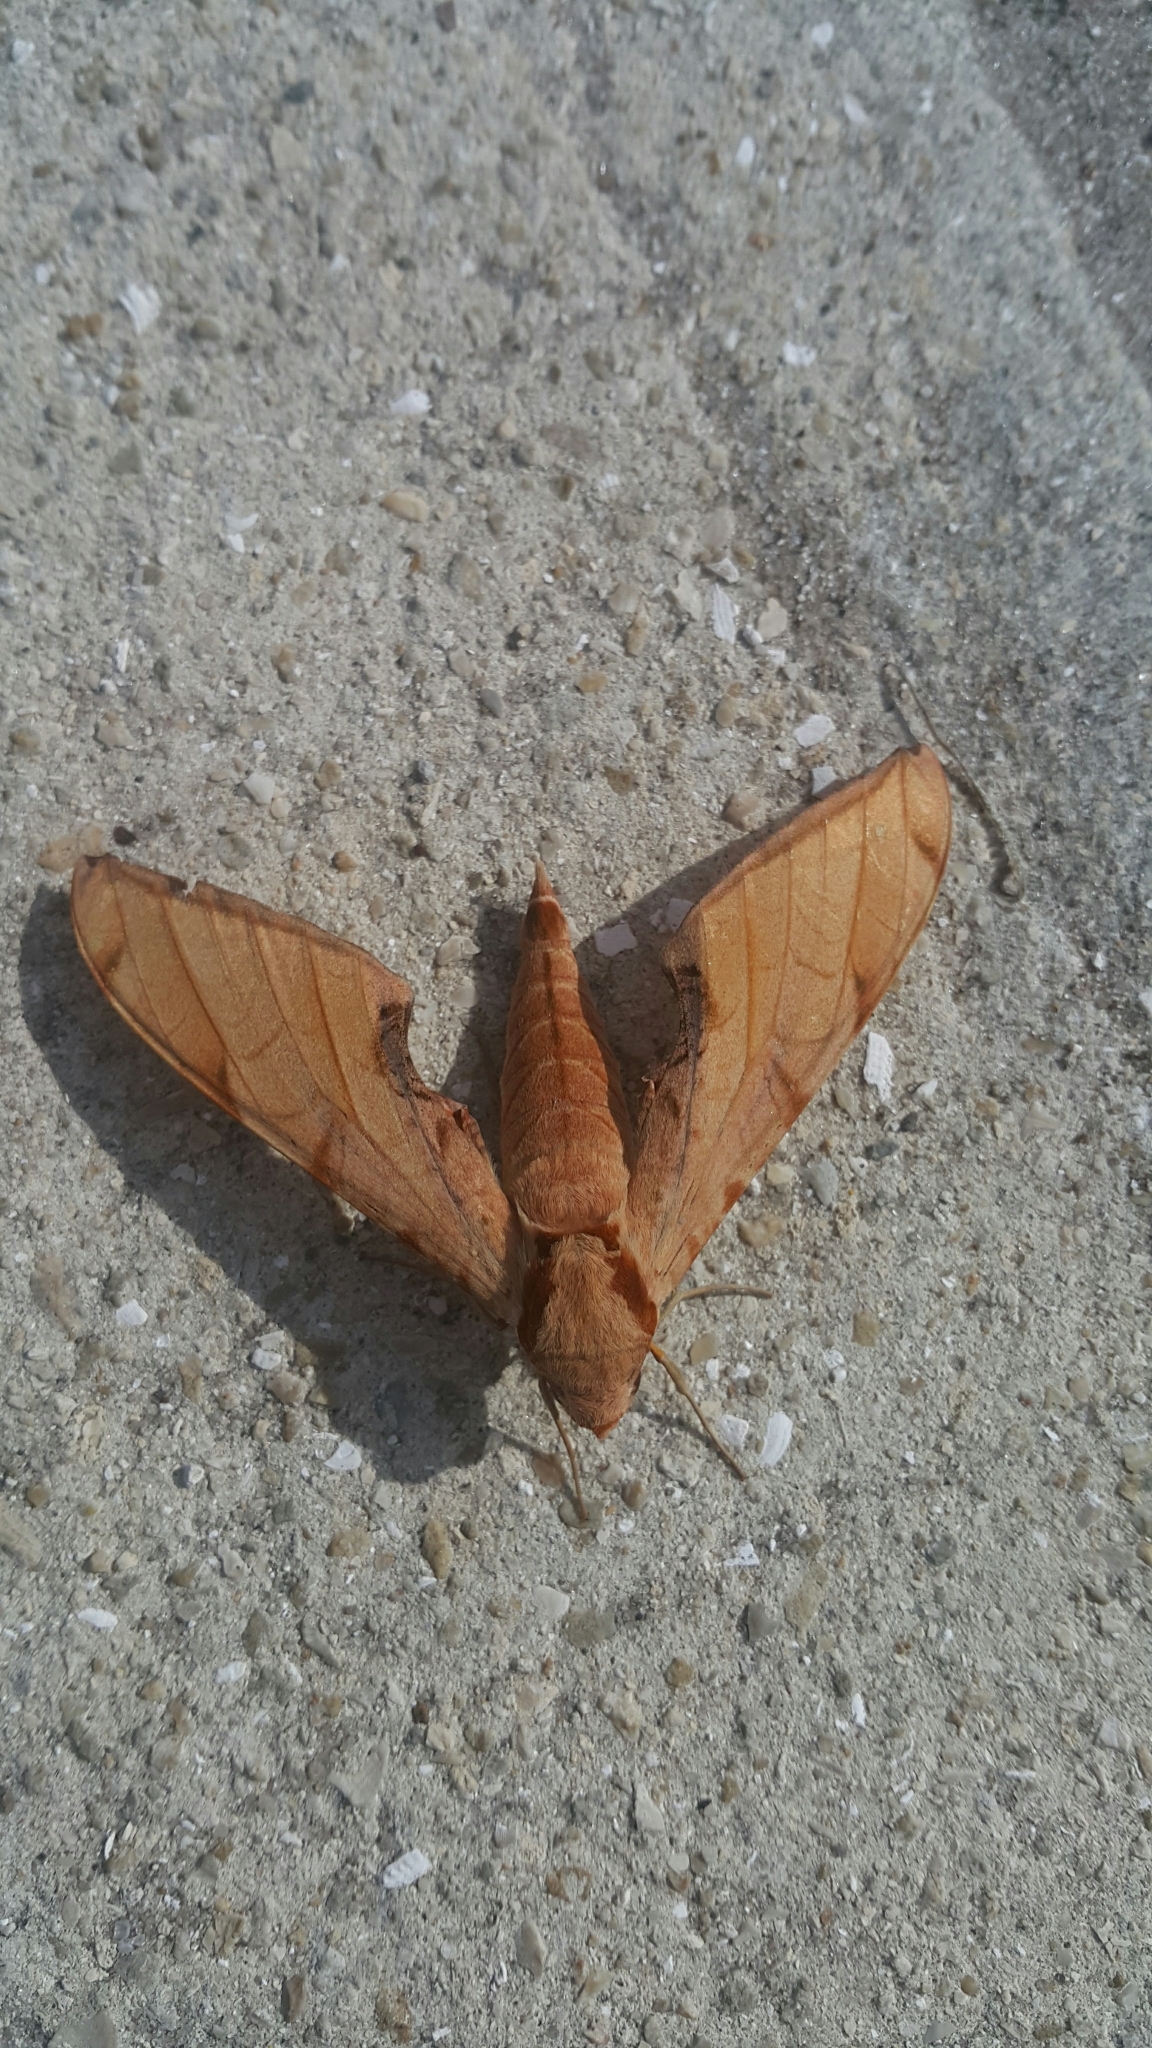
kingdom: Animalia
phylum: Arthropoda
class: Insecta
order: Lepidoptera
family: Sphingidae
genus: Protambulyx
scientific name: Protambulyx strigilis
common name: Streaked sphinx
